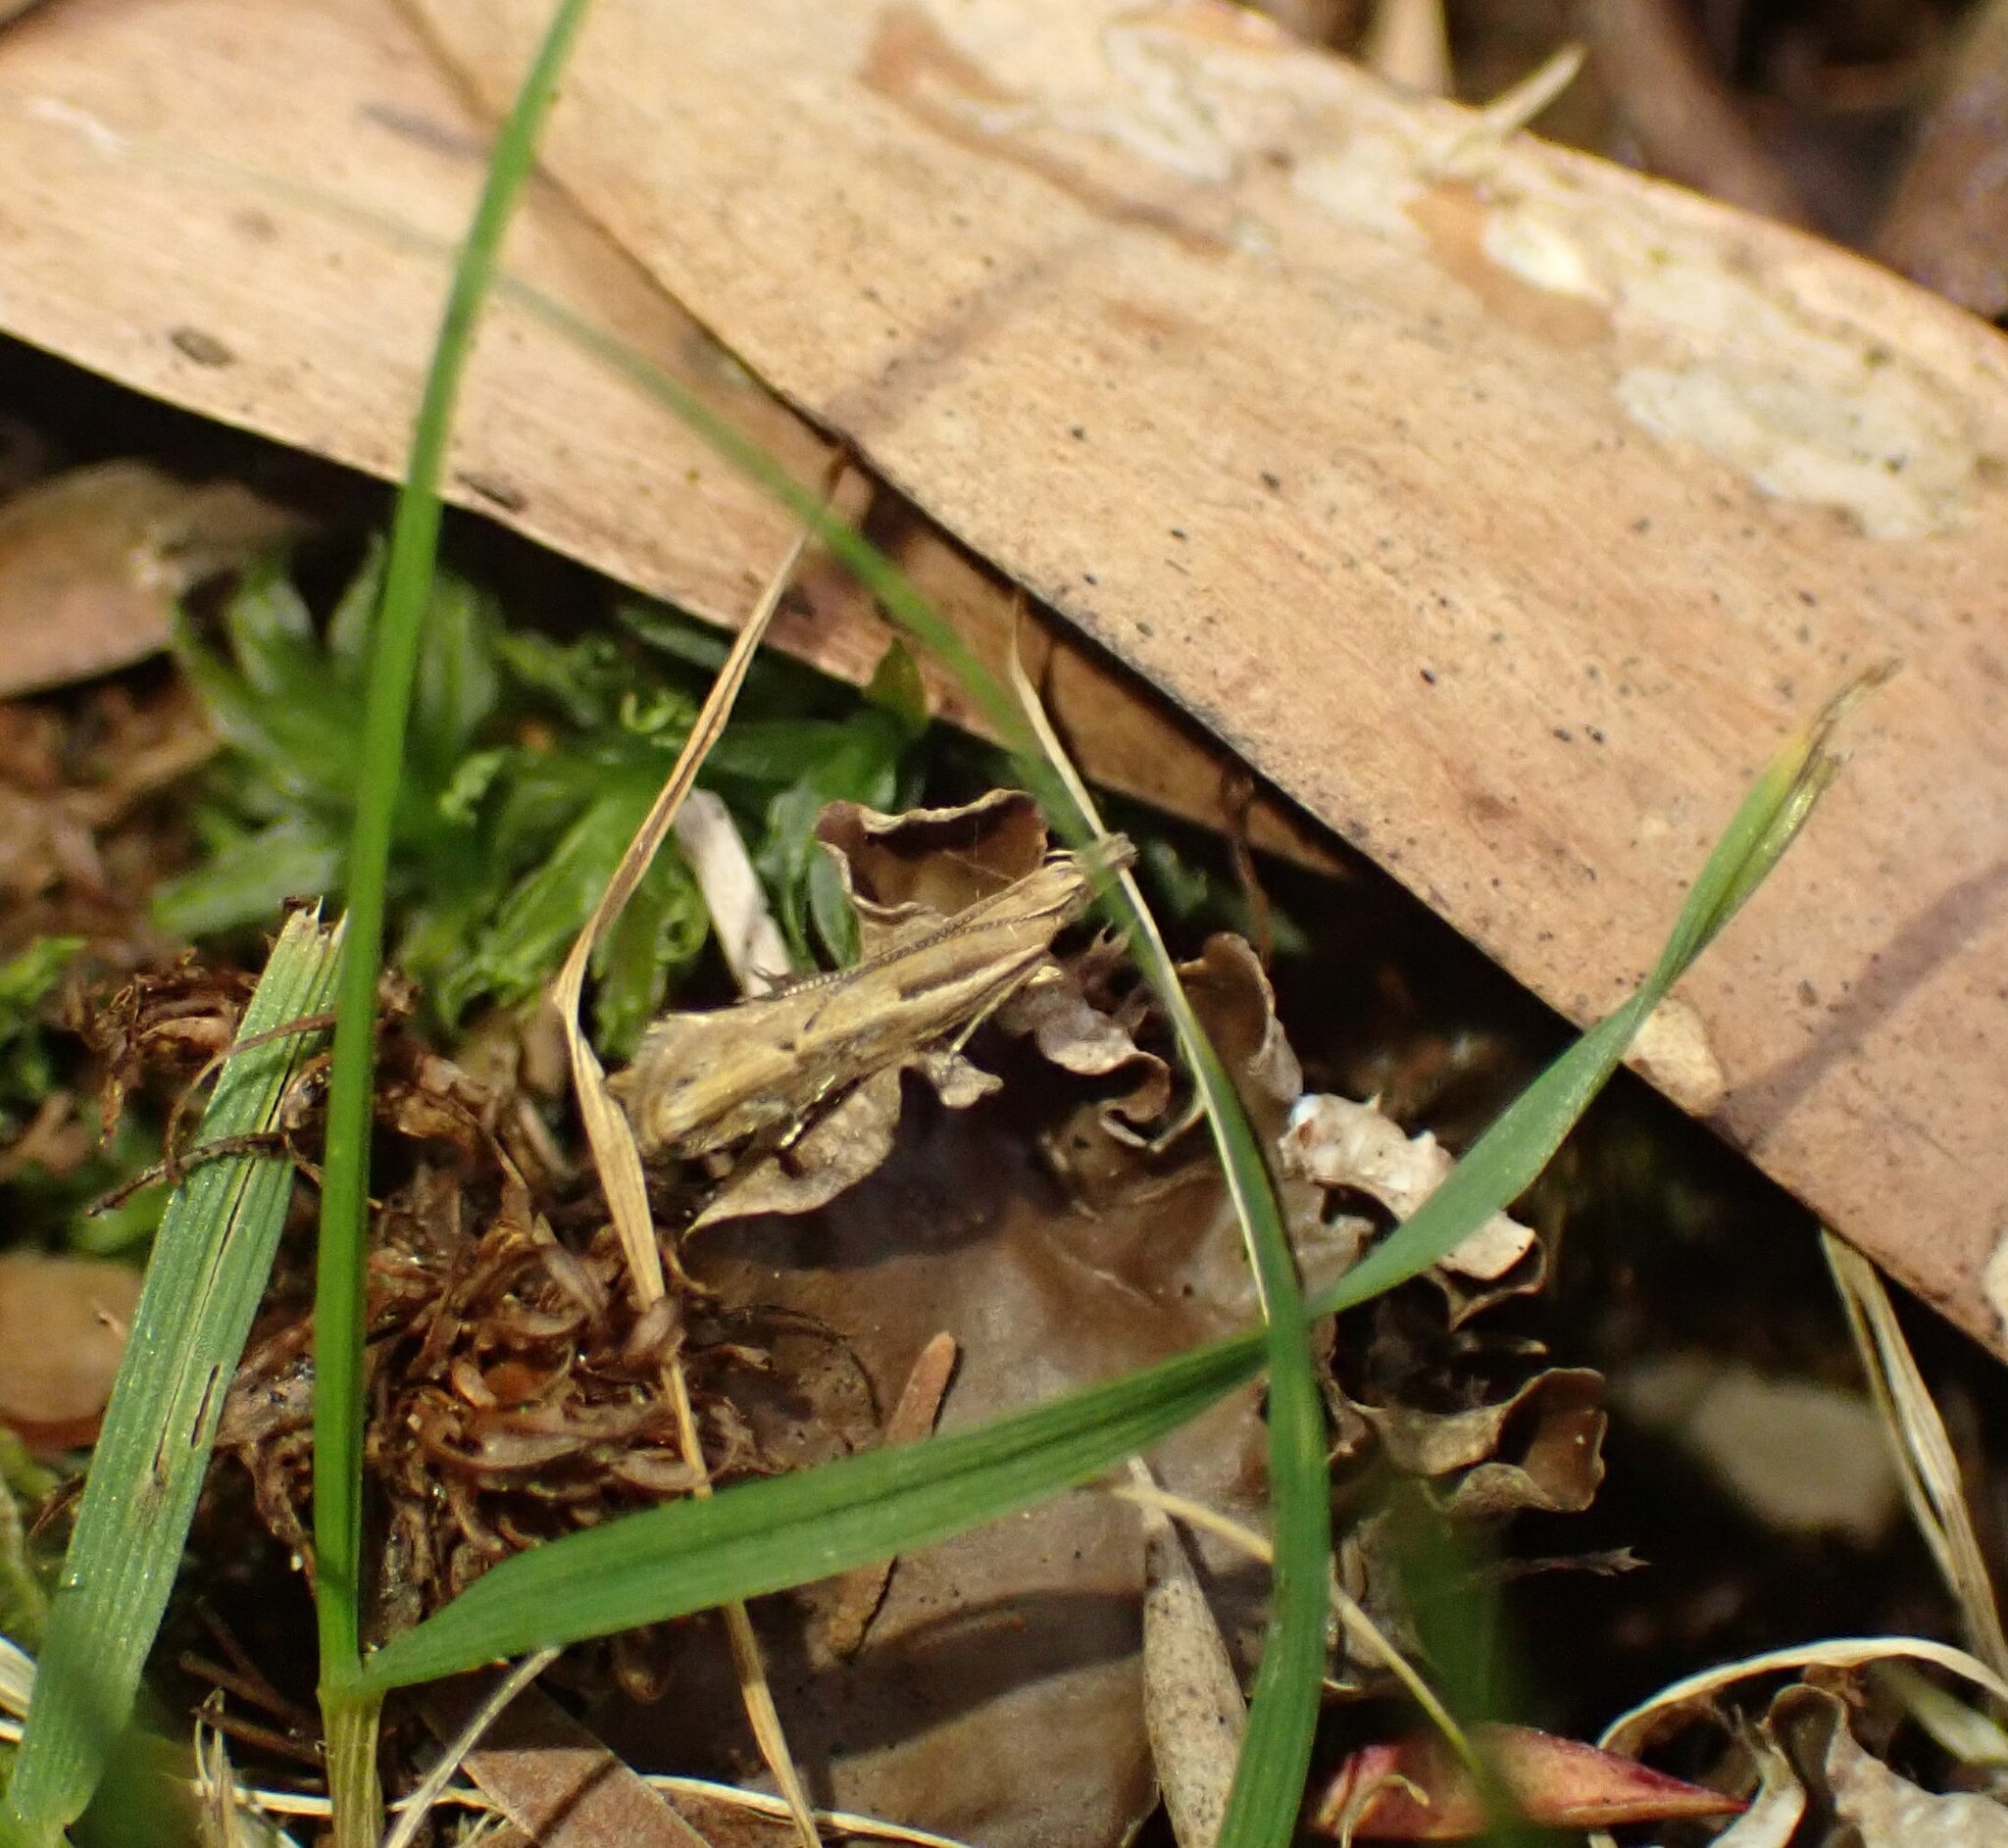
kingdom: Animalia
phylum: Arthropoda
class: Insecta
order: Lepidoptera
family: Depressariidae
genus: Eutorna
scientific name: Eutorna intonsa
